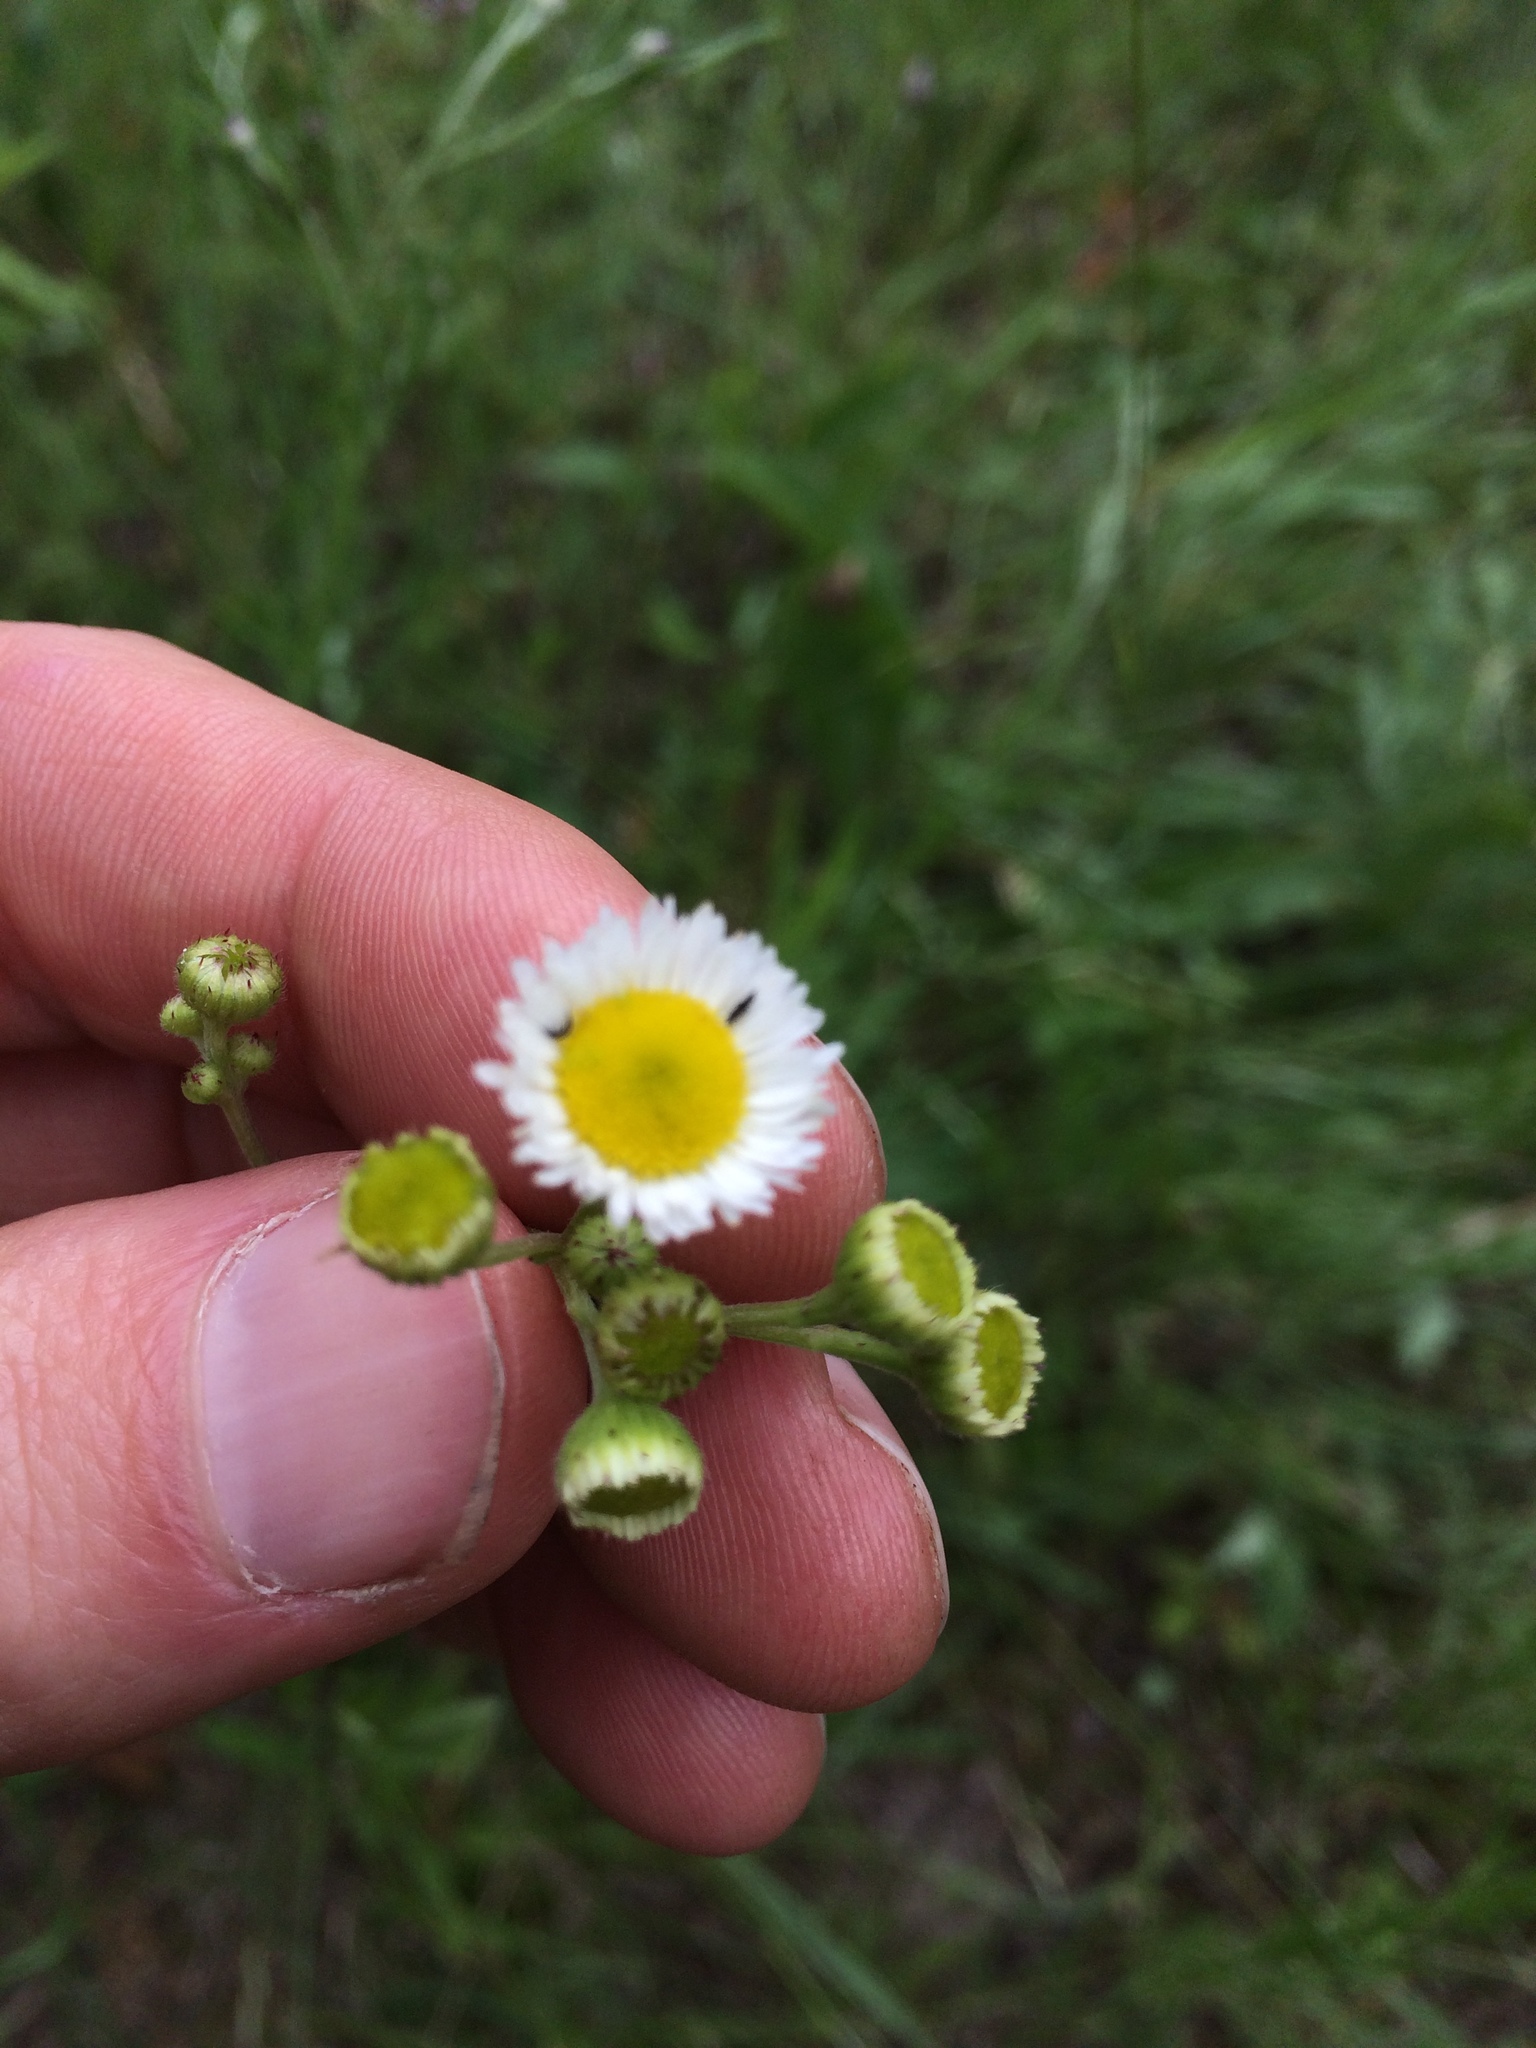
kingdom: Plantae
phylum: Tracheophyta
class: Magnoliopsida
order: Asterales
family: Asteraceae
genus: Erigeron
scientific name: Erigeron strigosus
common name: Common eastern fleabane
